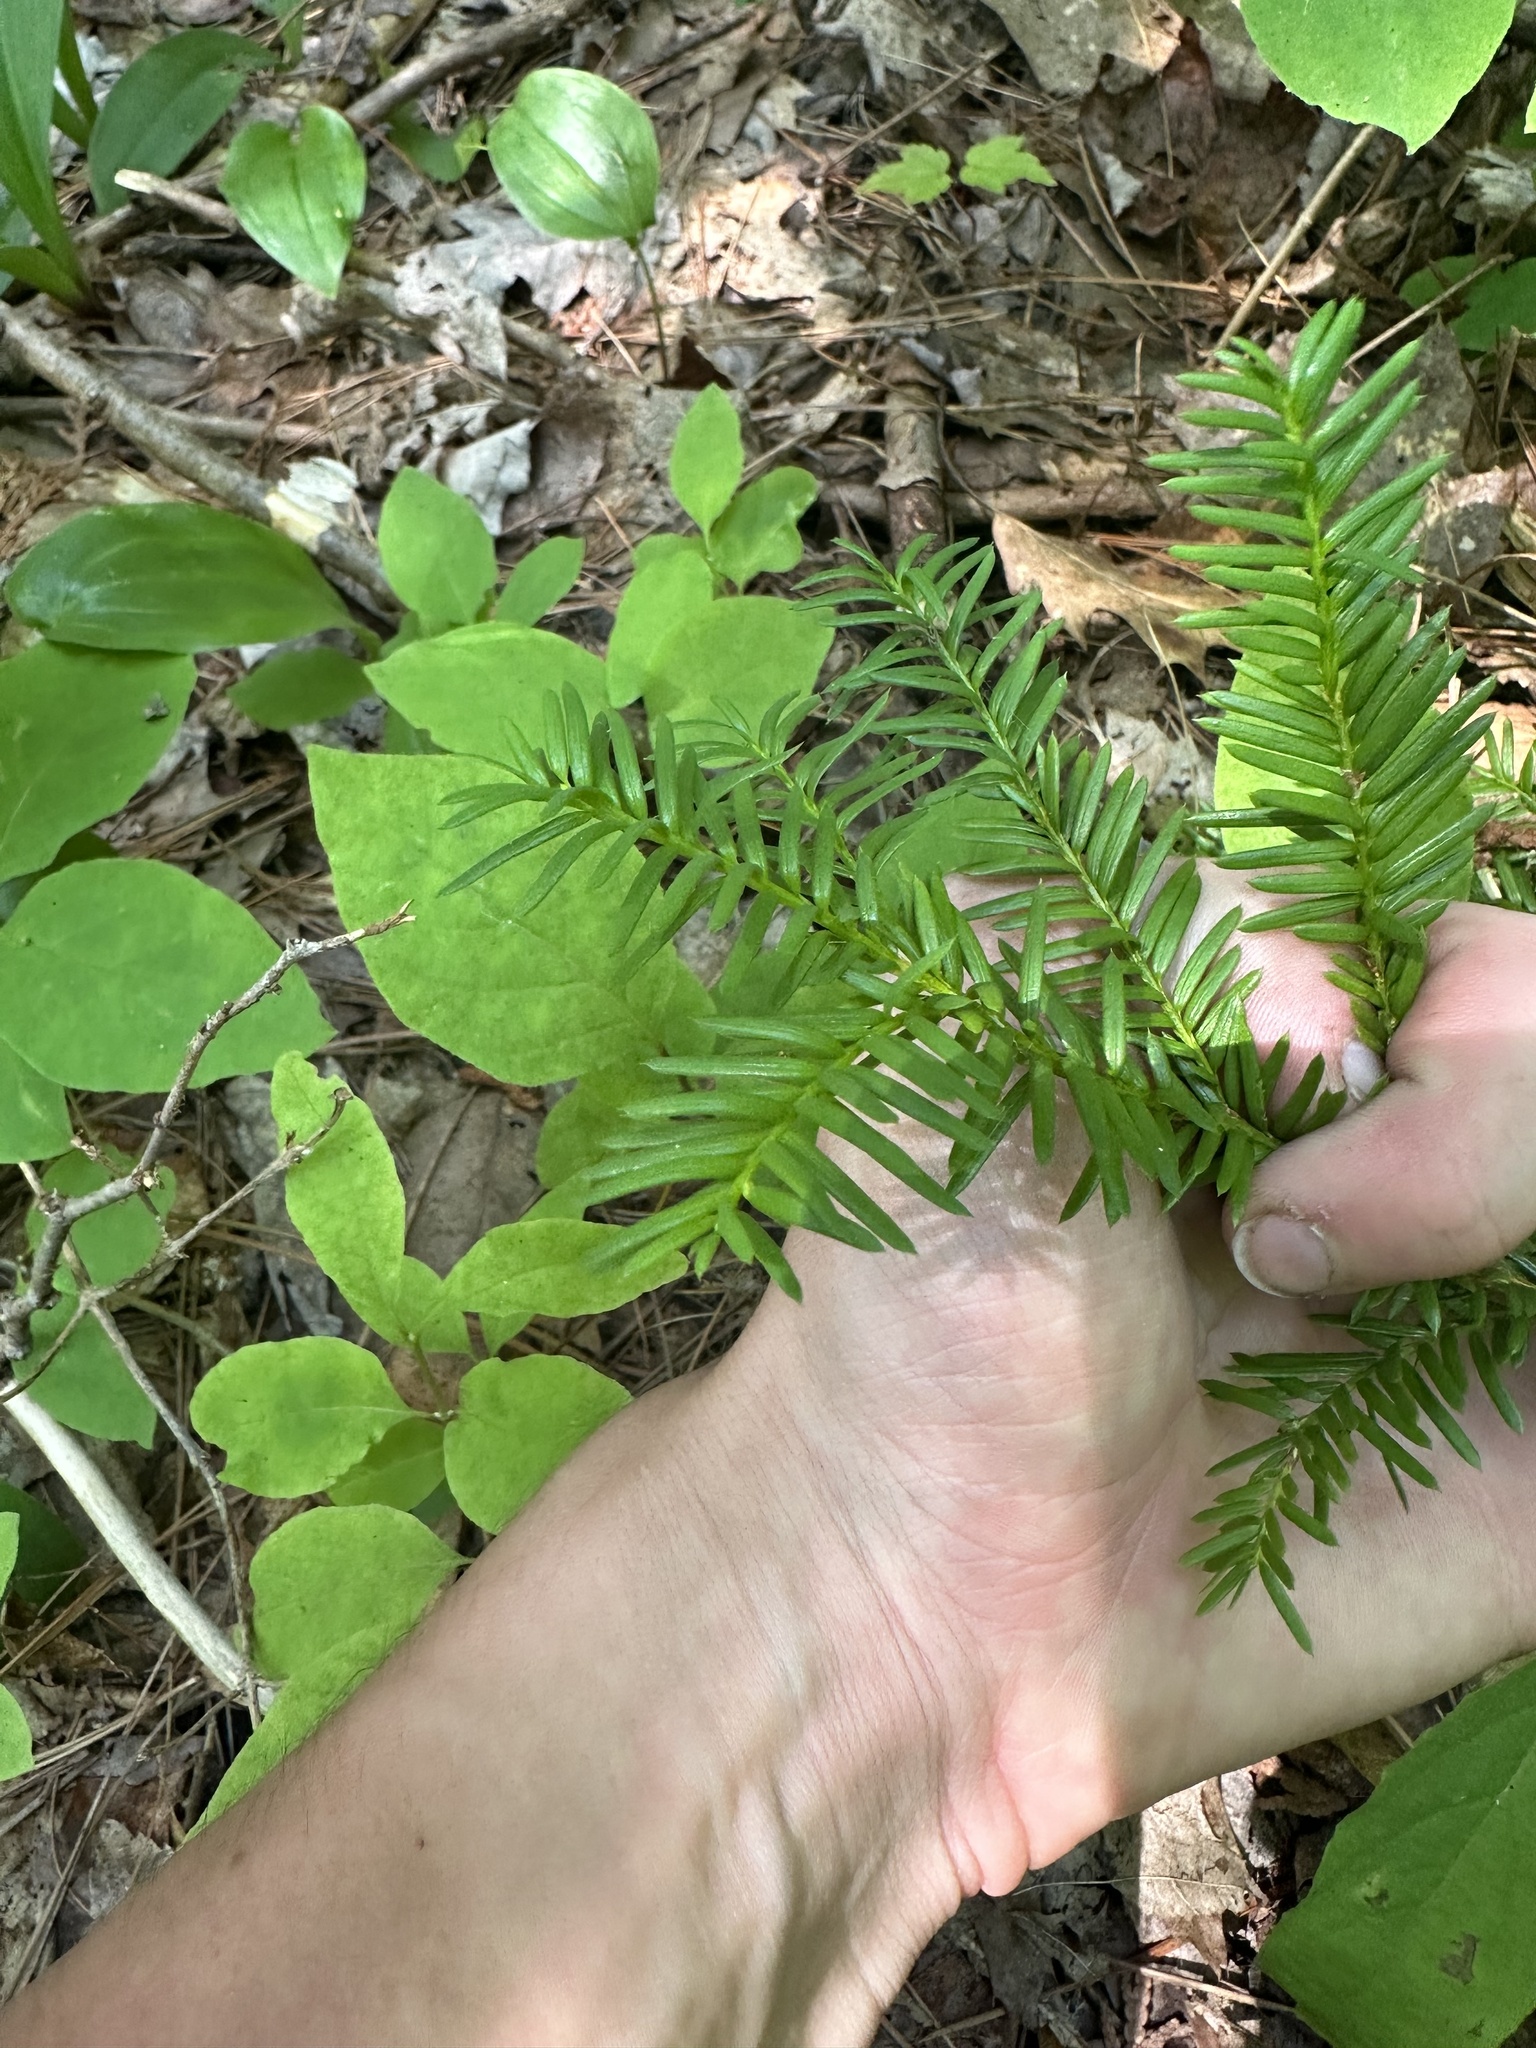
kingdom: Plantae
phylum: Tracheophyta
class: Pinopsida
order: Pinales
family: Taxaceae
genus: Taxus
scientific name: Taxus canadensis
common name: American yew
